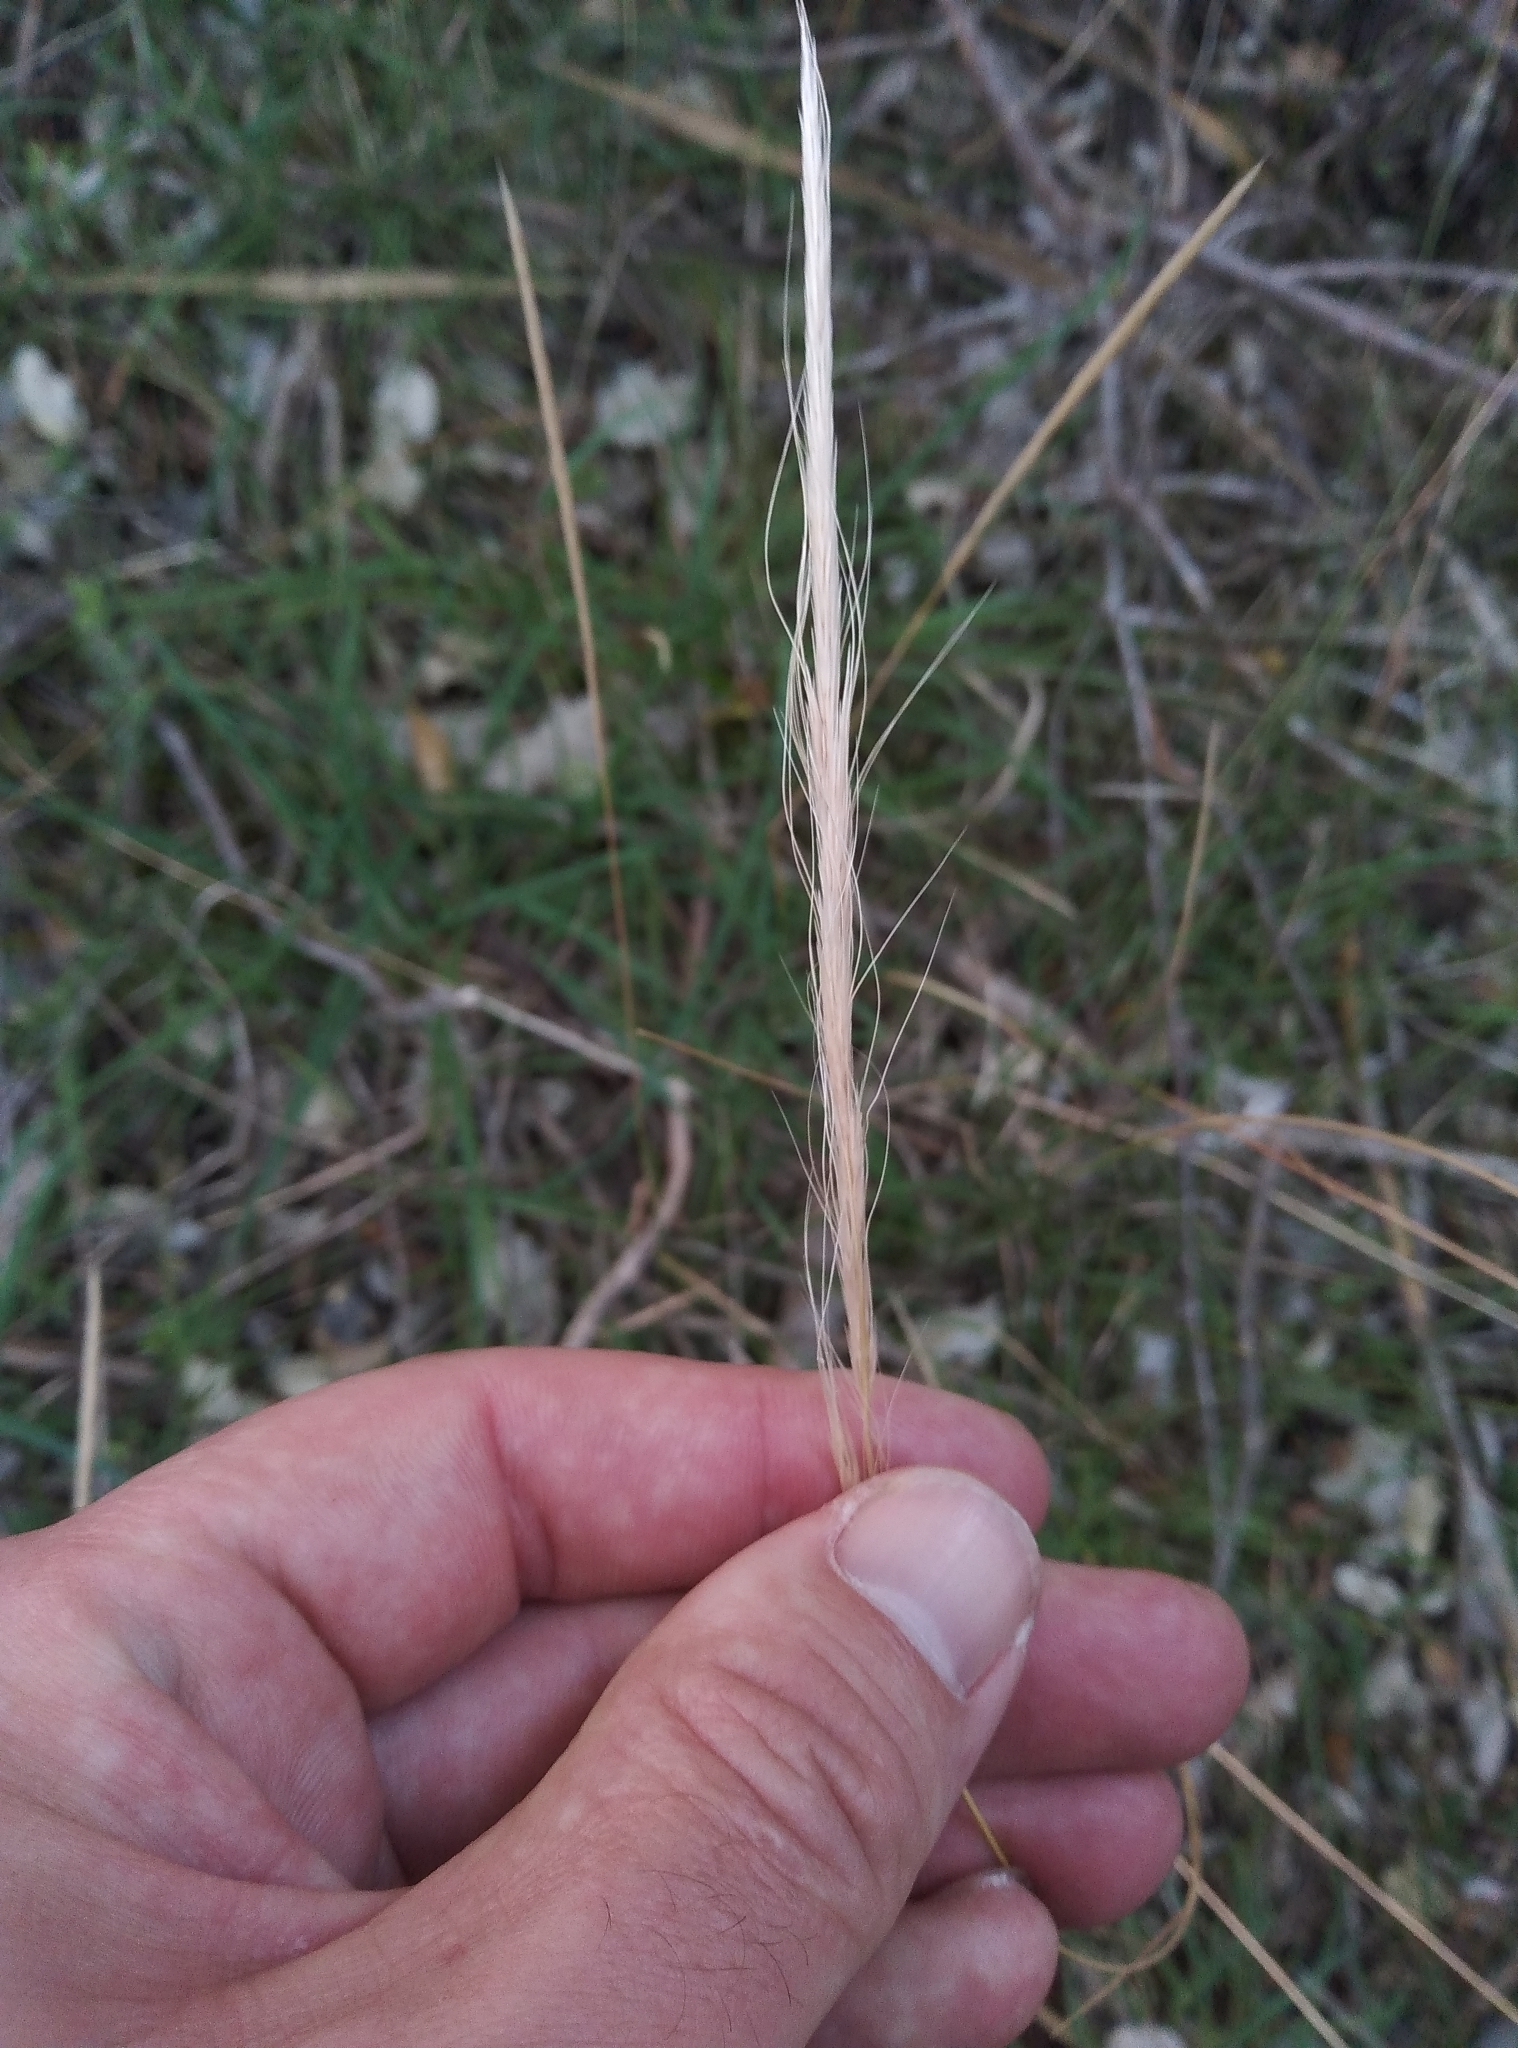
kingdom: Plantae
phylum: Tracheophyta
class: Liliopsida
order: Poales
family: Poaceae
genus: Dichelachne
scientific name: Dichelachne crinita
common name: Clovenfoot plumegrass
